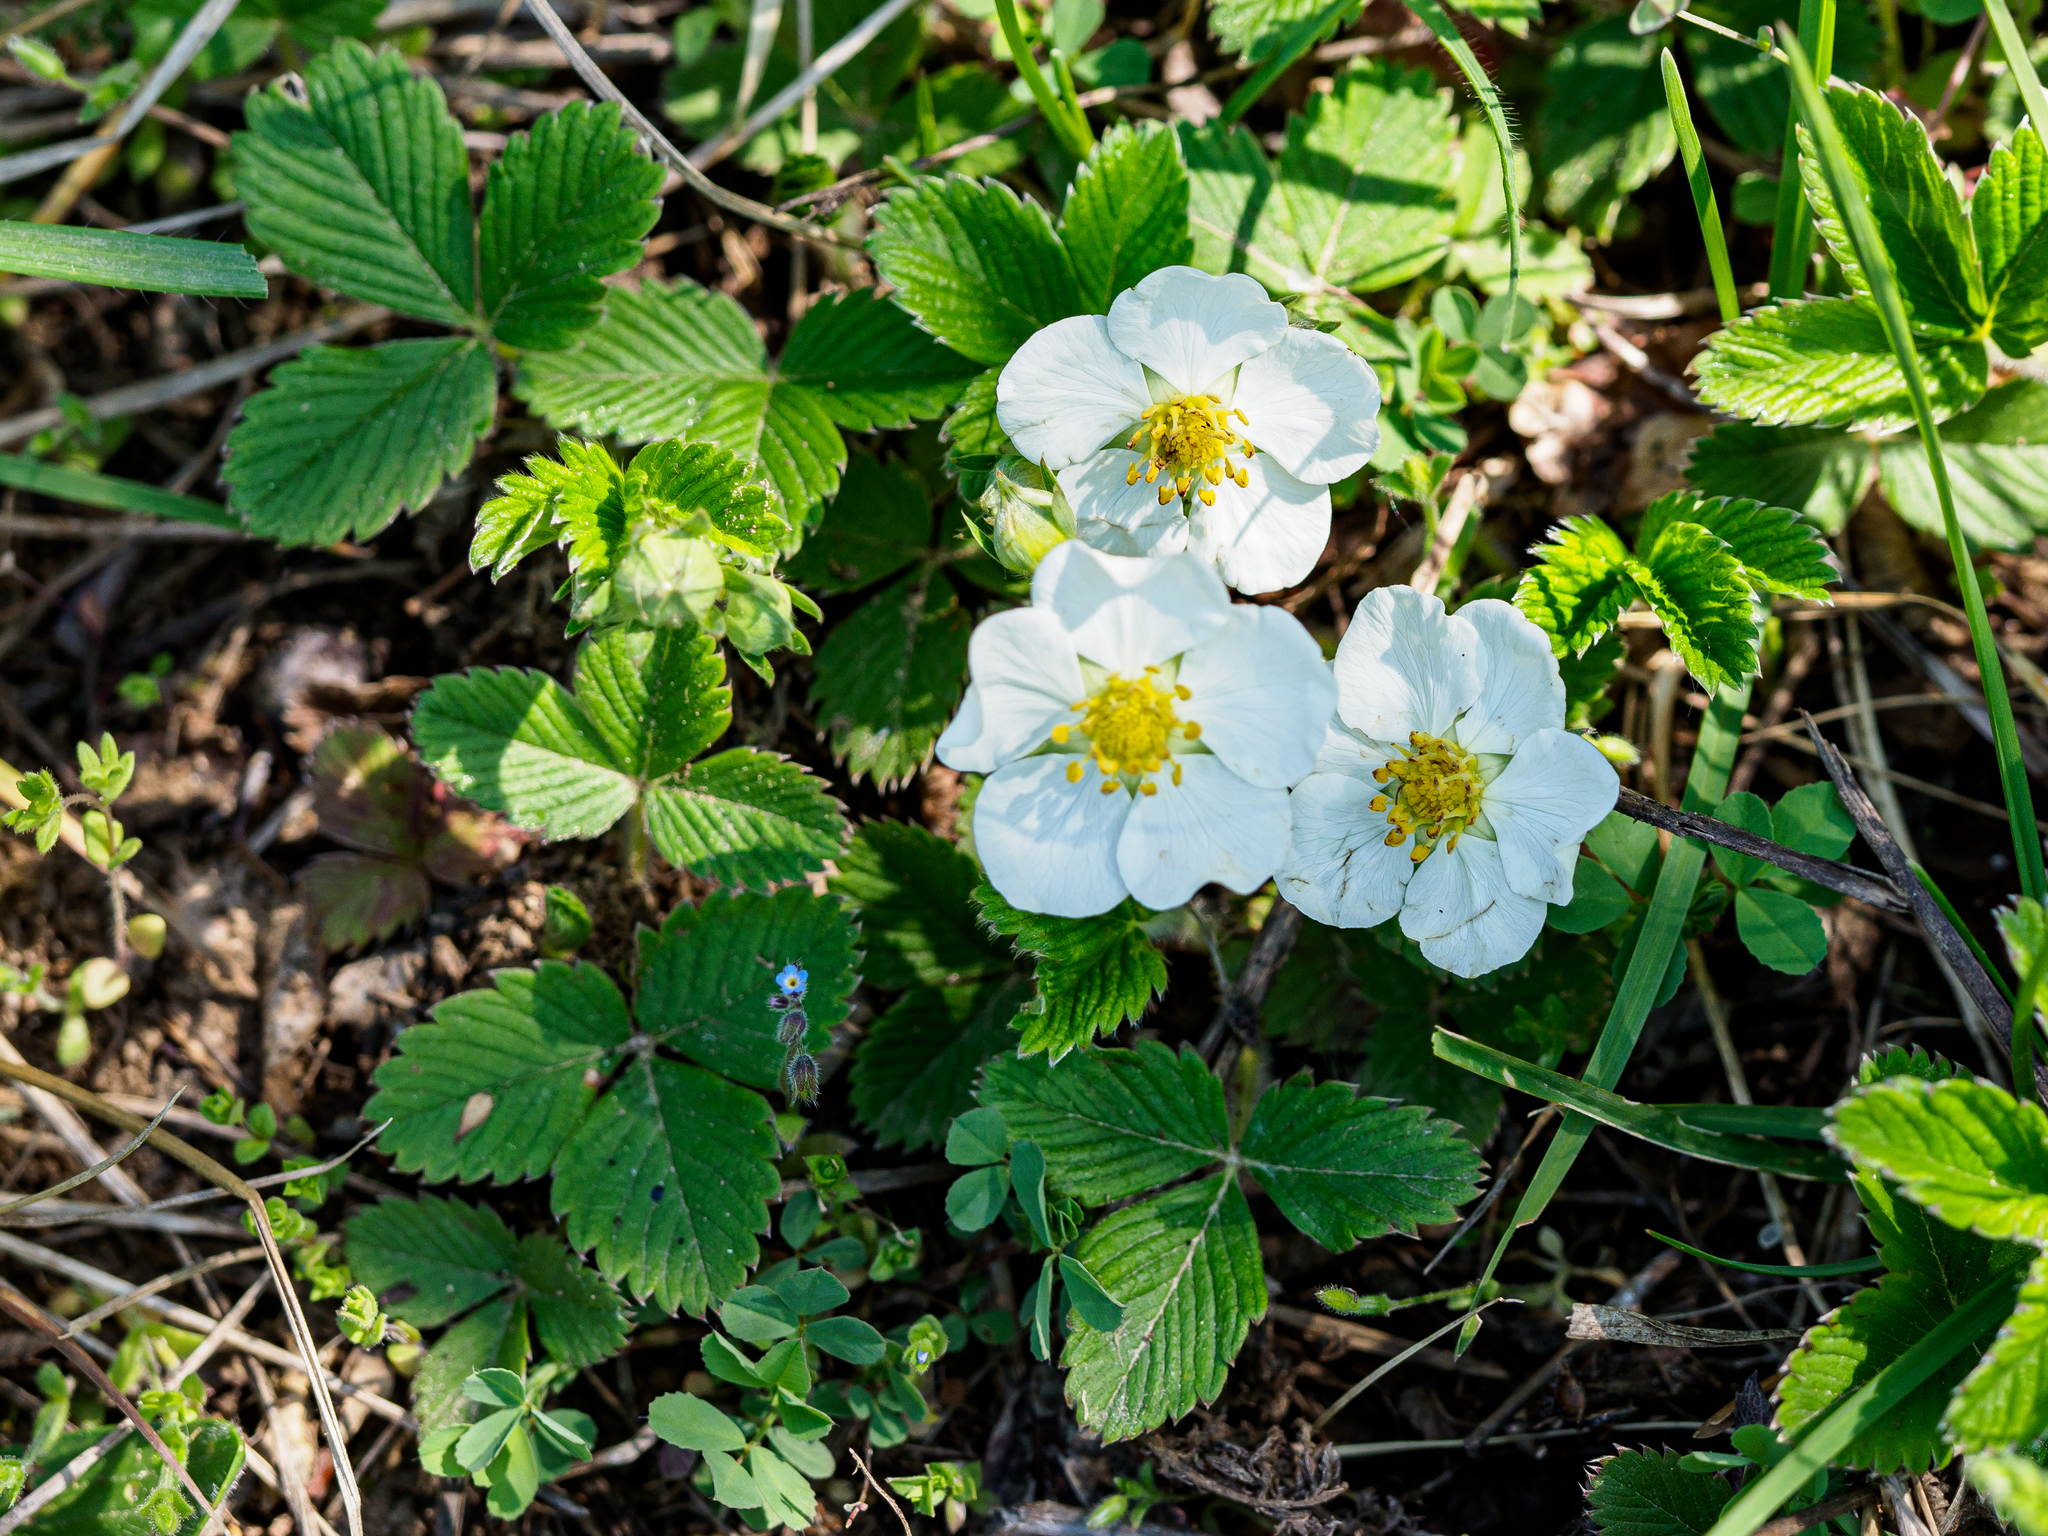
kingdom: Plantae
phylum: Tracheophyta
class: Magnoliopsida
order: Rosales
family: Rosaceae
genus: Fragaria
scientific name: Fragaria viridis
